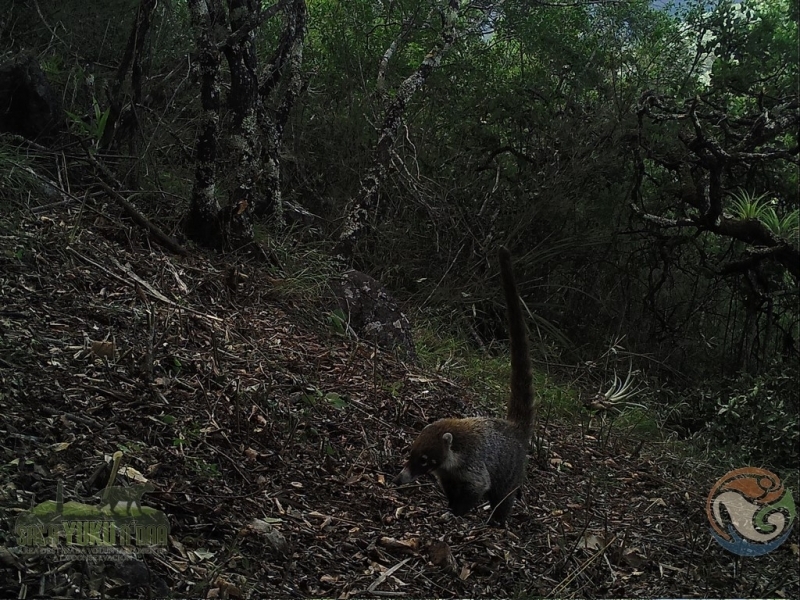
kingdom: Animalia
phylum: Chordata
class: Mammalia
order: Carnivora
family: Procyonidae
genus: Nasua
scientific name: Nasua narica
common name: White-nosed coati
